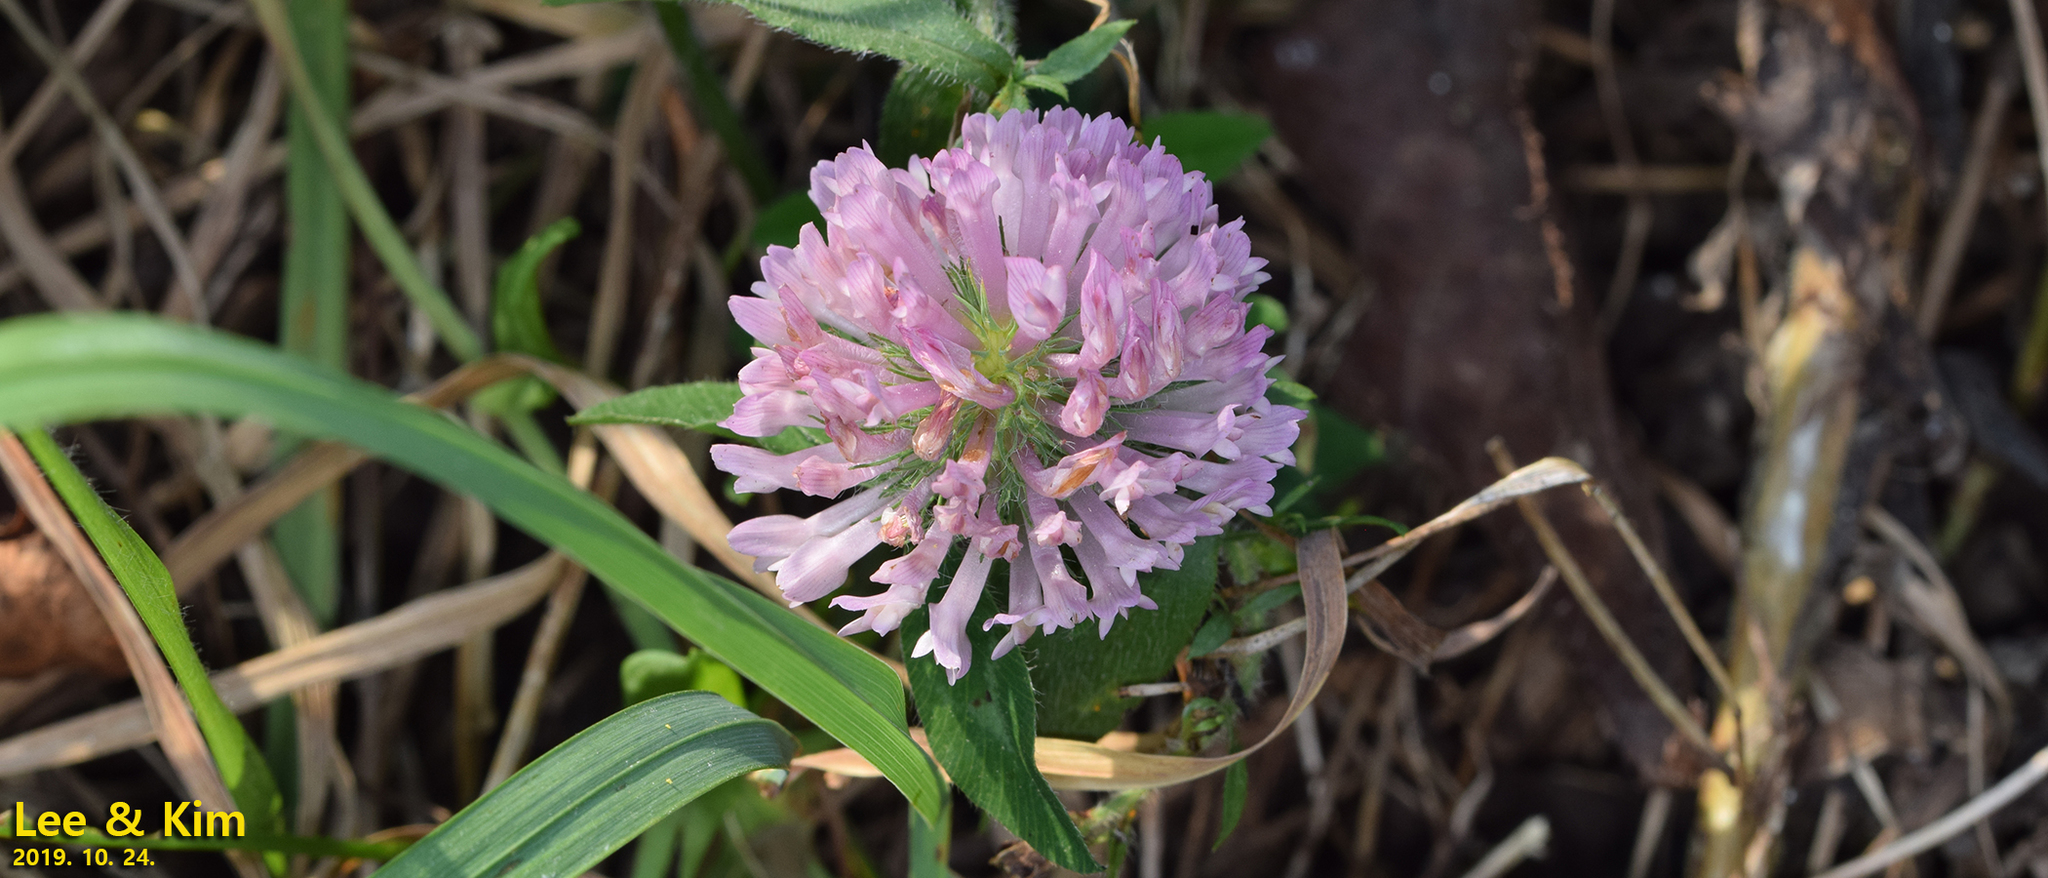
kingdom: Plantae
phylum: Tracheophyta
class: Magnoliopsida
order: Fabales
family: Fabaceae
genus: Trifolium
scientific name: Trifolium pratense
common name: Red clover
